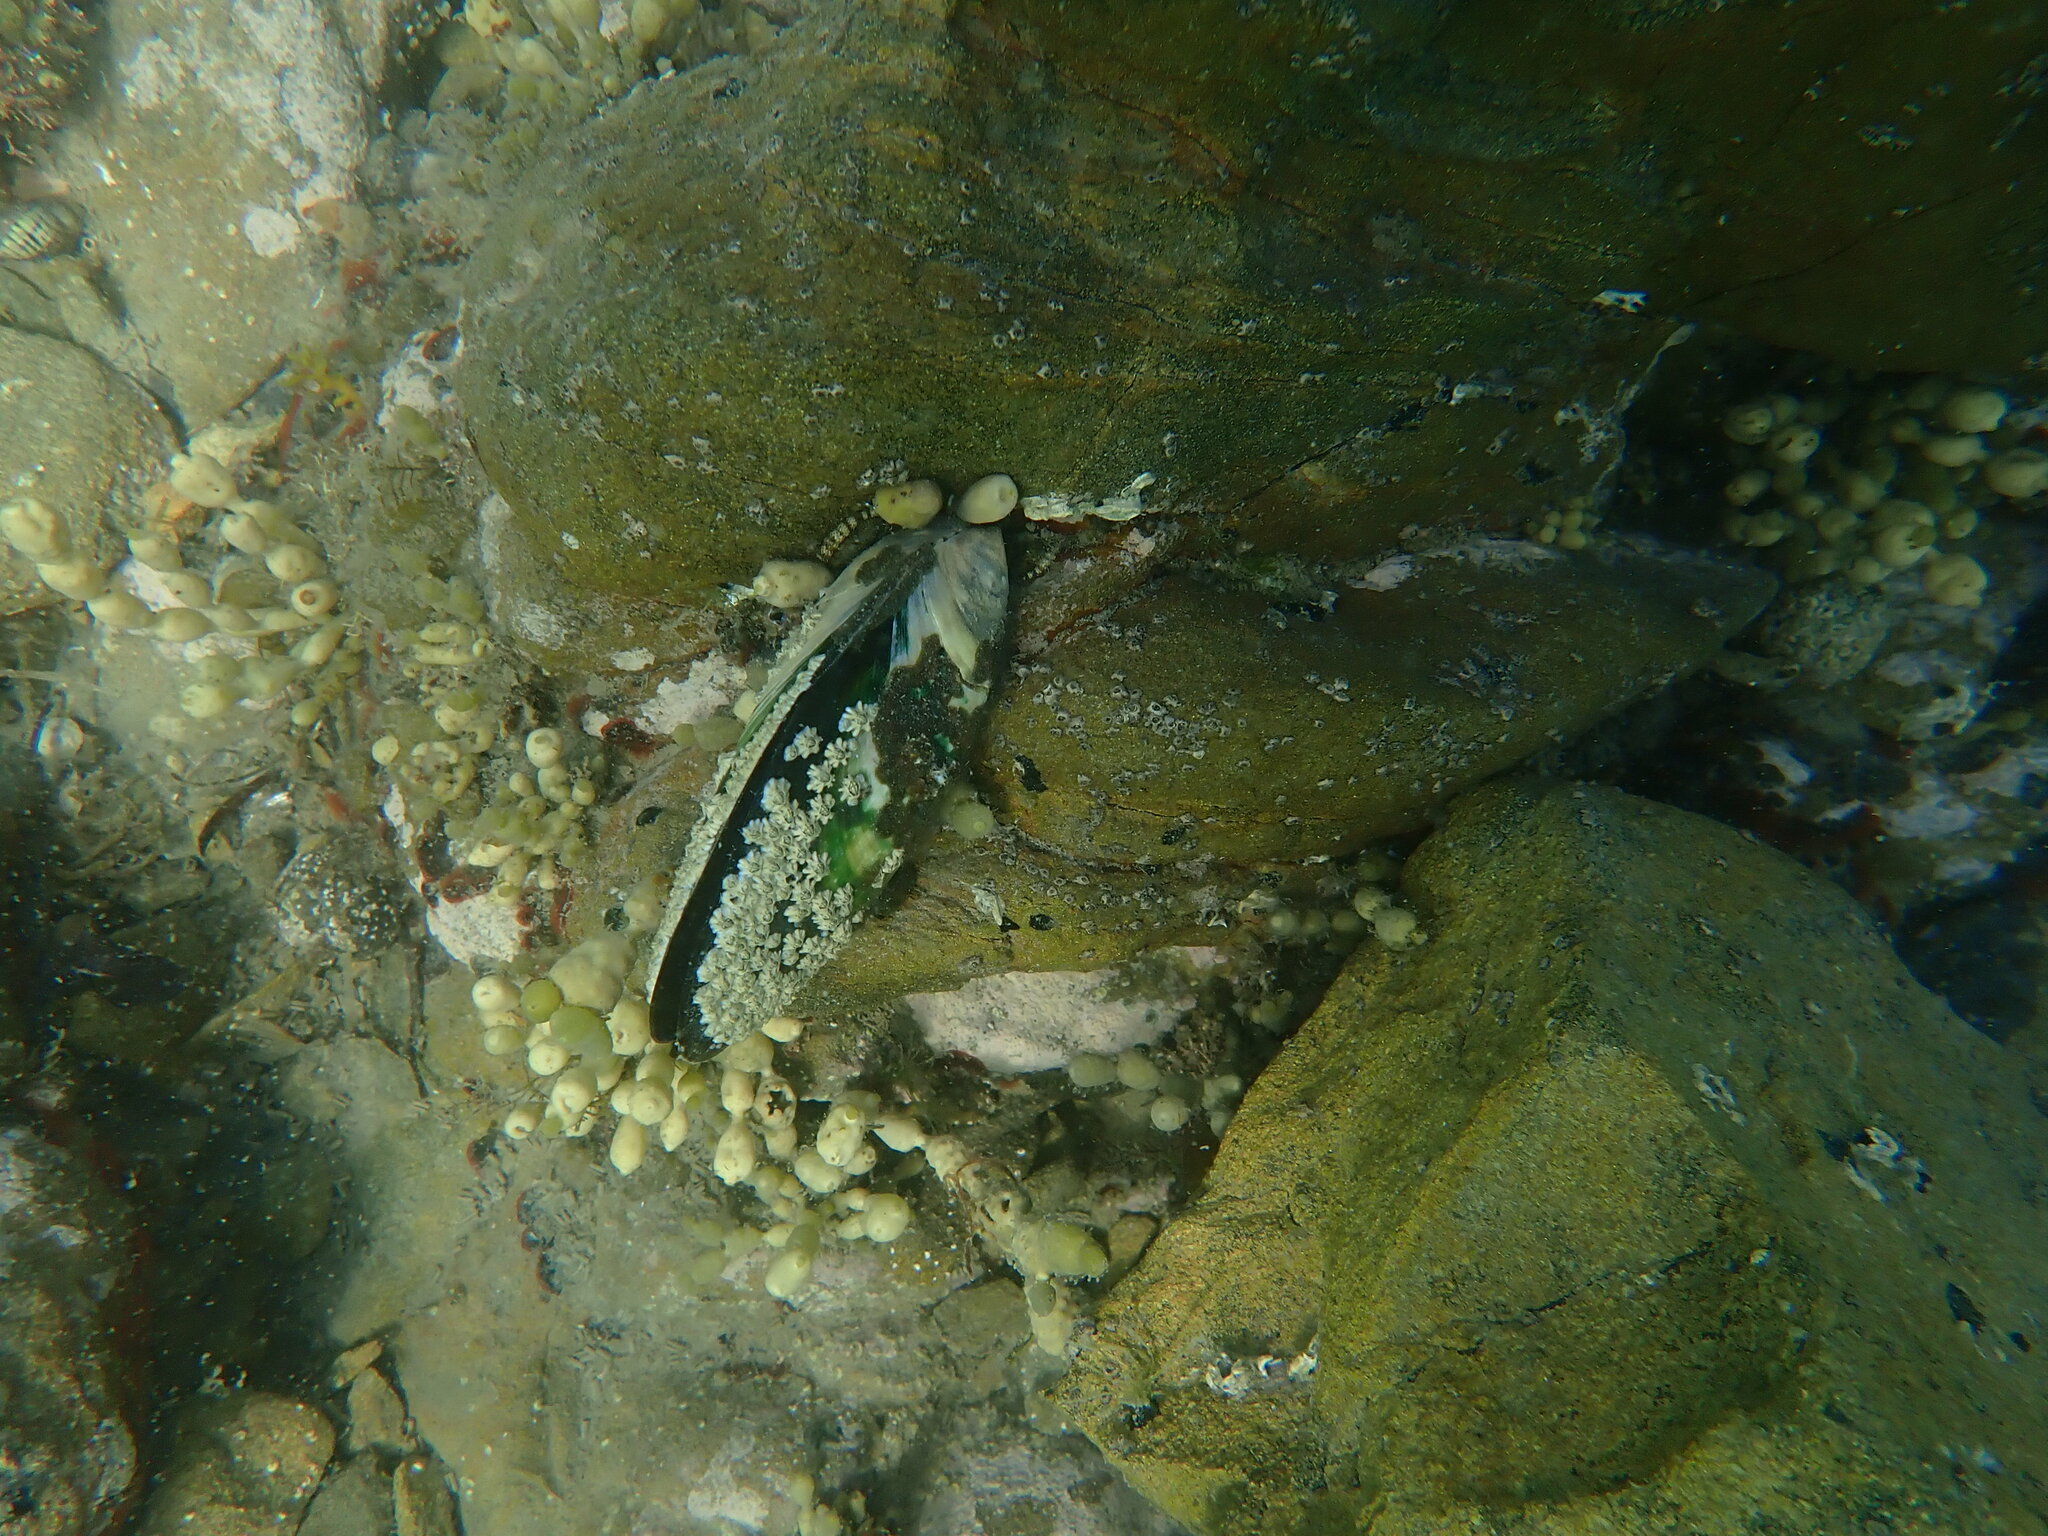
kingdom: Animalia
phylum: Mollusca
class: Bivalvia
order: Mytilida
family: Mytilidae
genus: Perna
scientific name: Perna canaliculus
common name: New zealand greenshelltm
